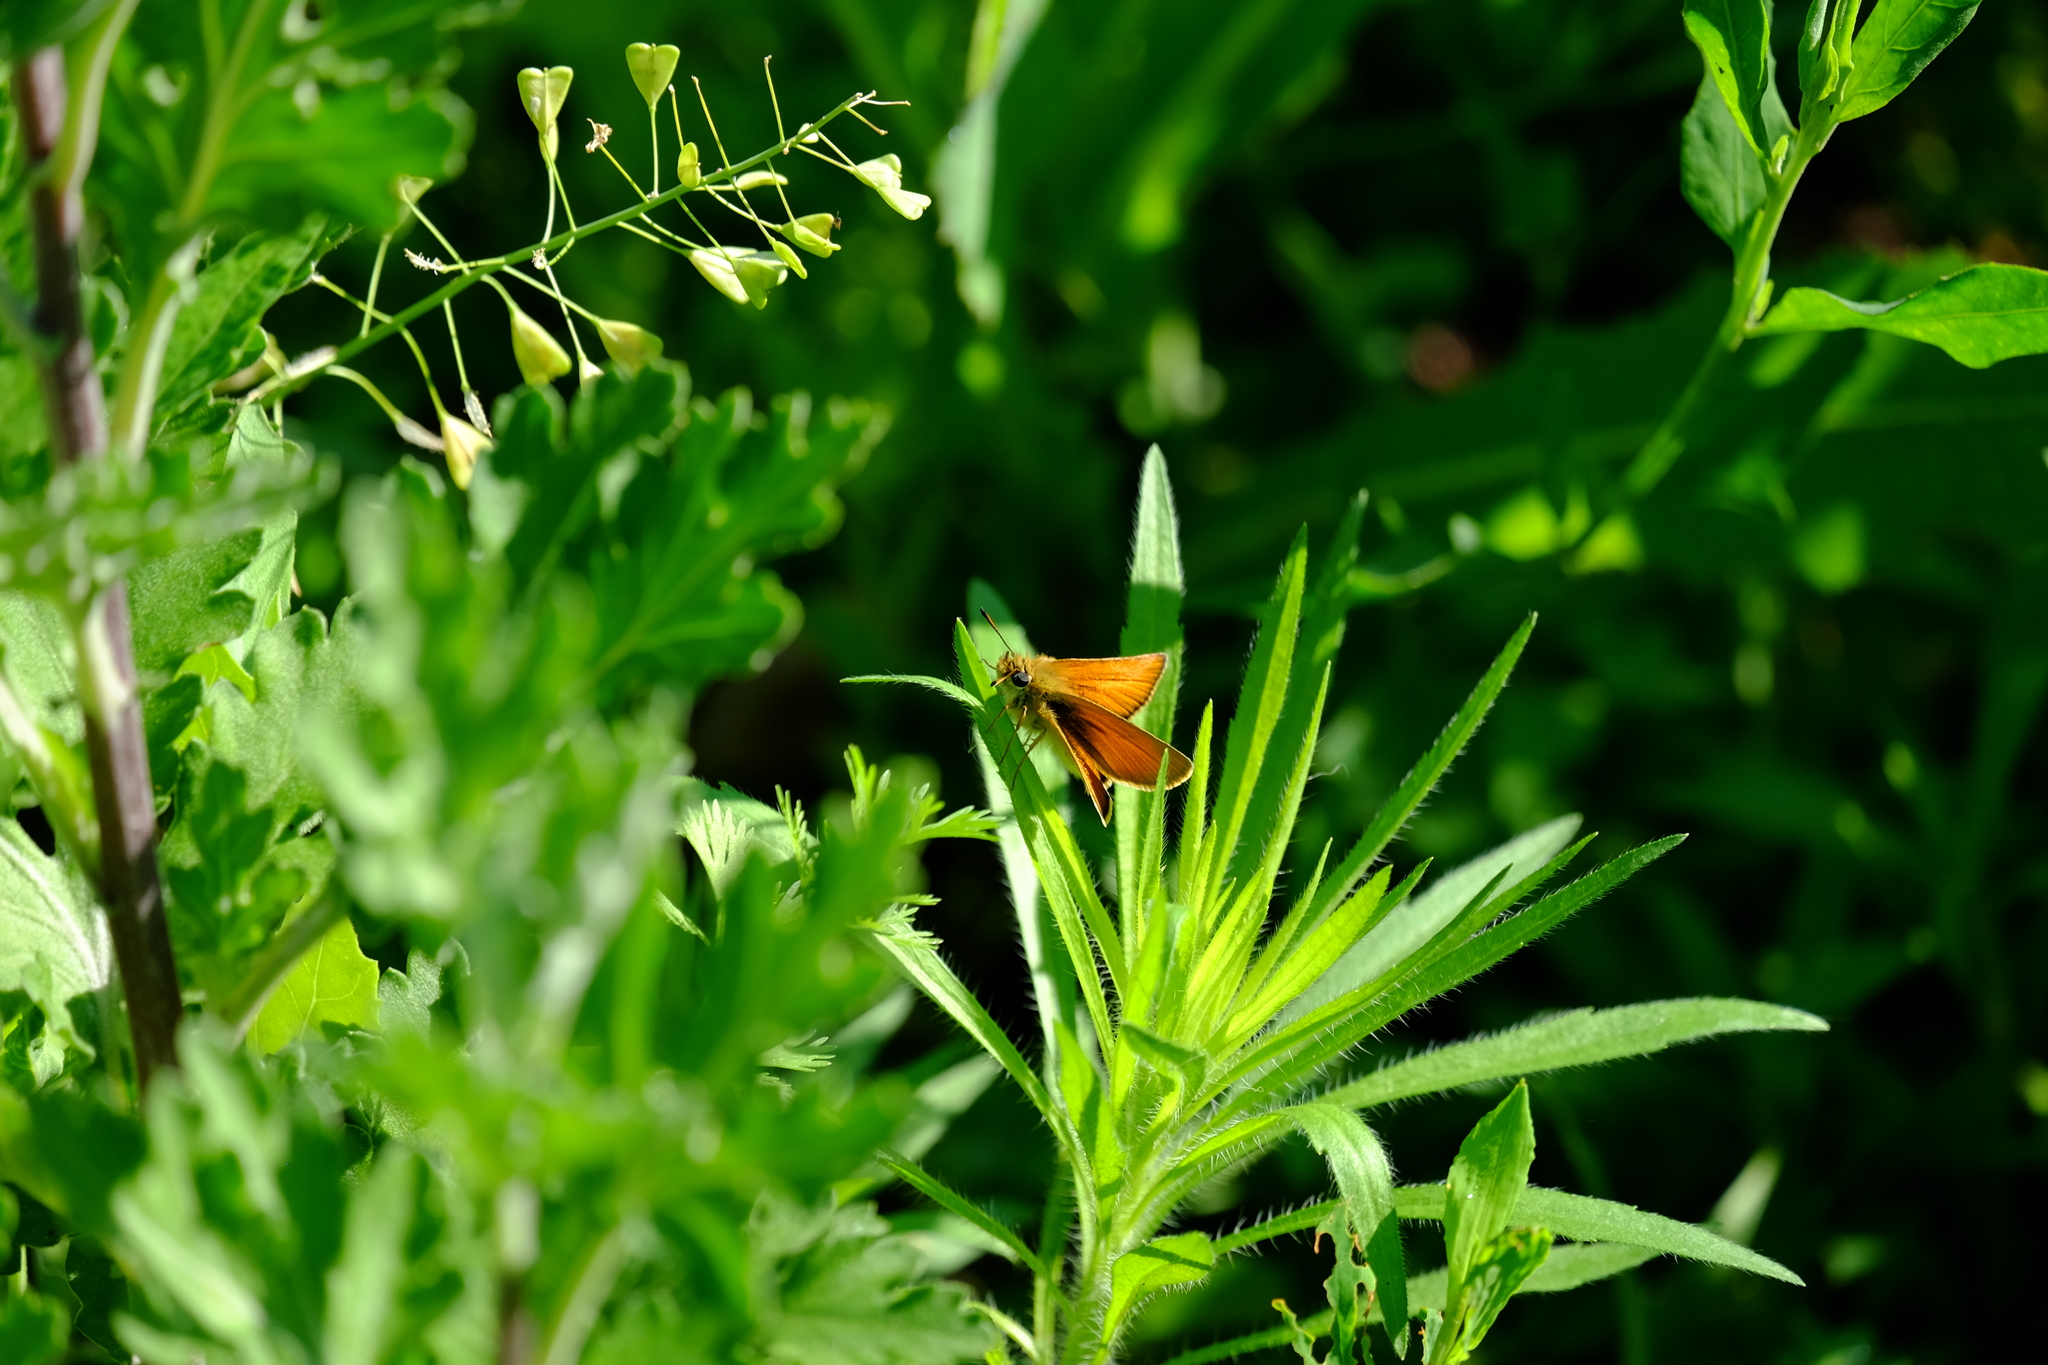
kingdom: Animalia
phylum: Arthropoda
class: Insecta
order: Lepidoptera
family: Hesperiidae
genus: Thymelicus
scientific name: Thymelicus lineola
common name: Essex skipper
